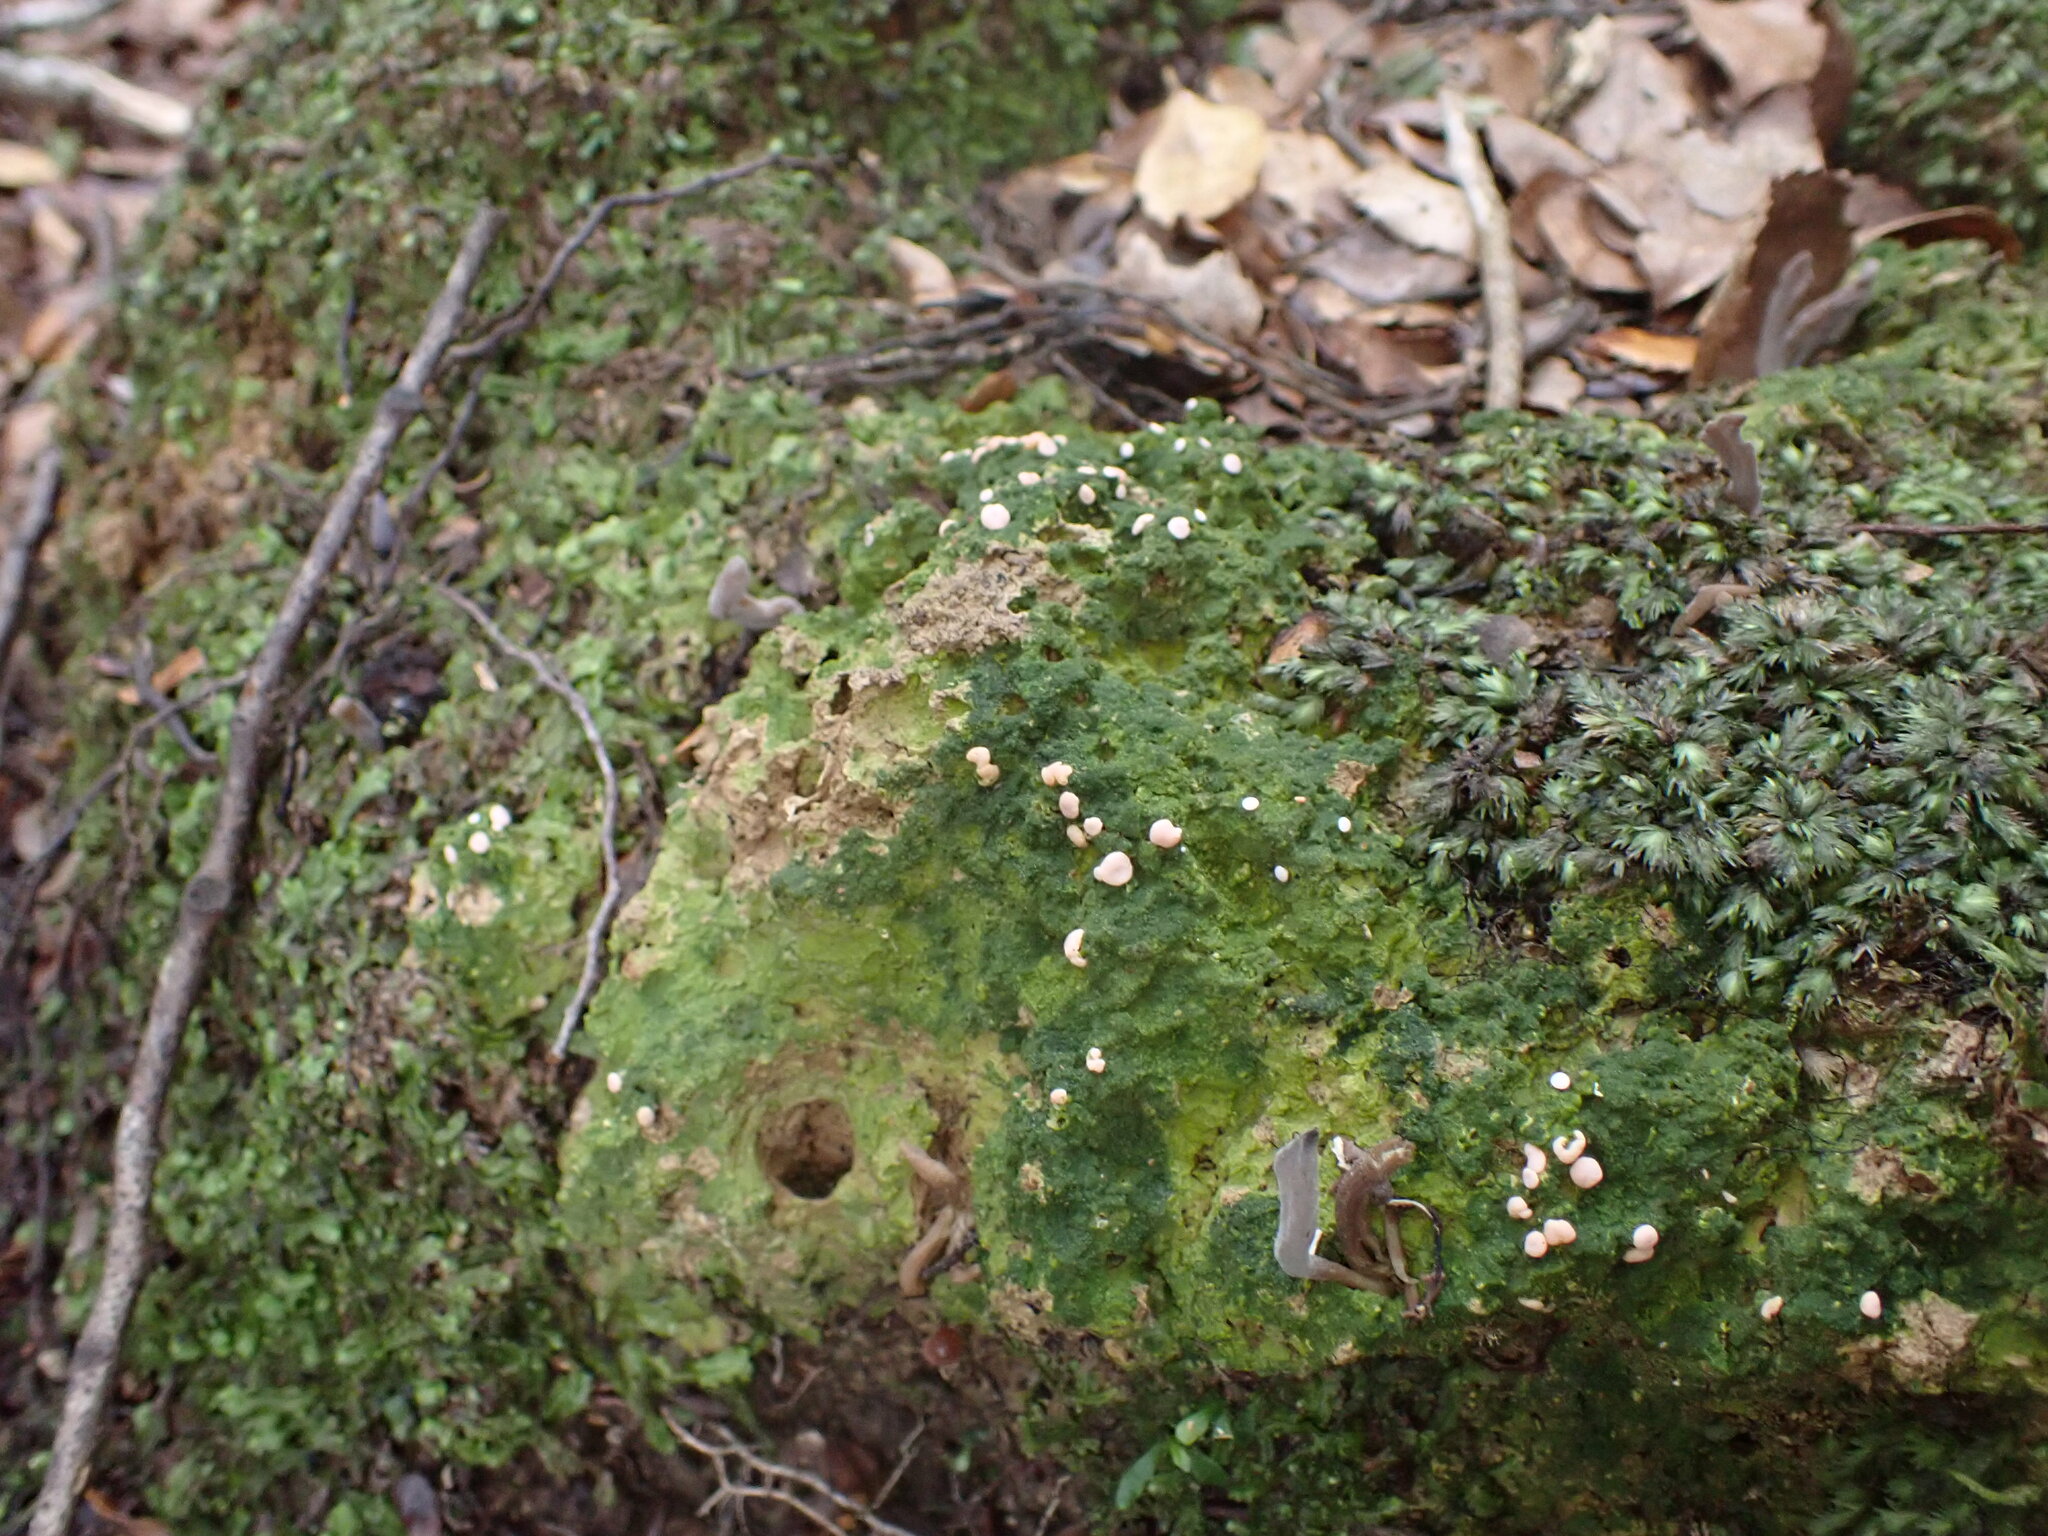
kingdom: Fungi
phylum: Ascomycota
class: Lecanoromycetes
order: Pertusariales
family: Icmadophilaceae
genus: Dibaeis
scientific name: Dibaeis absoluta
